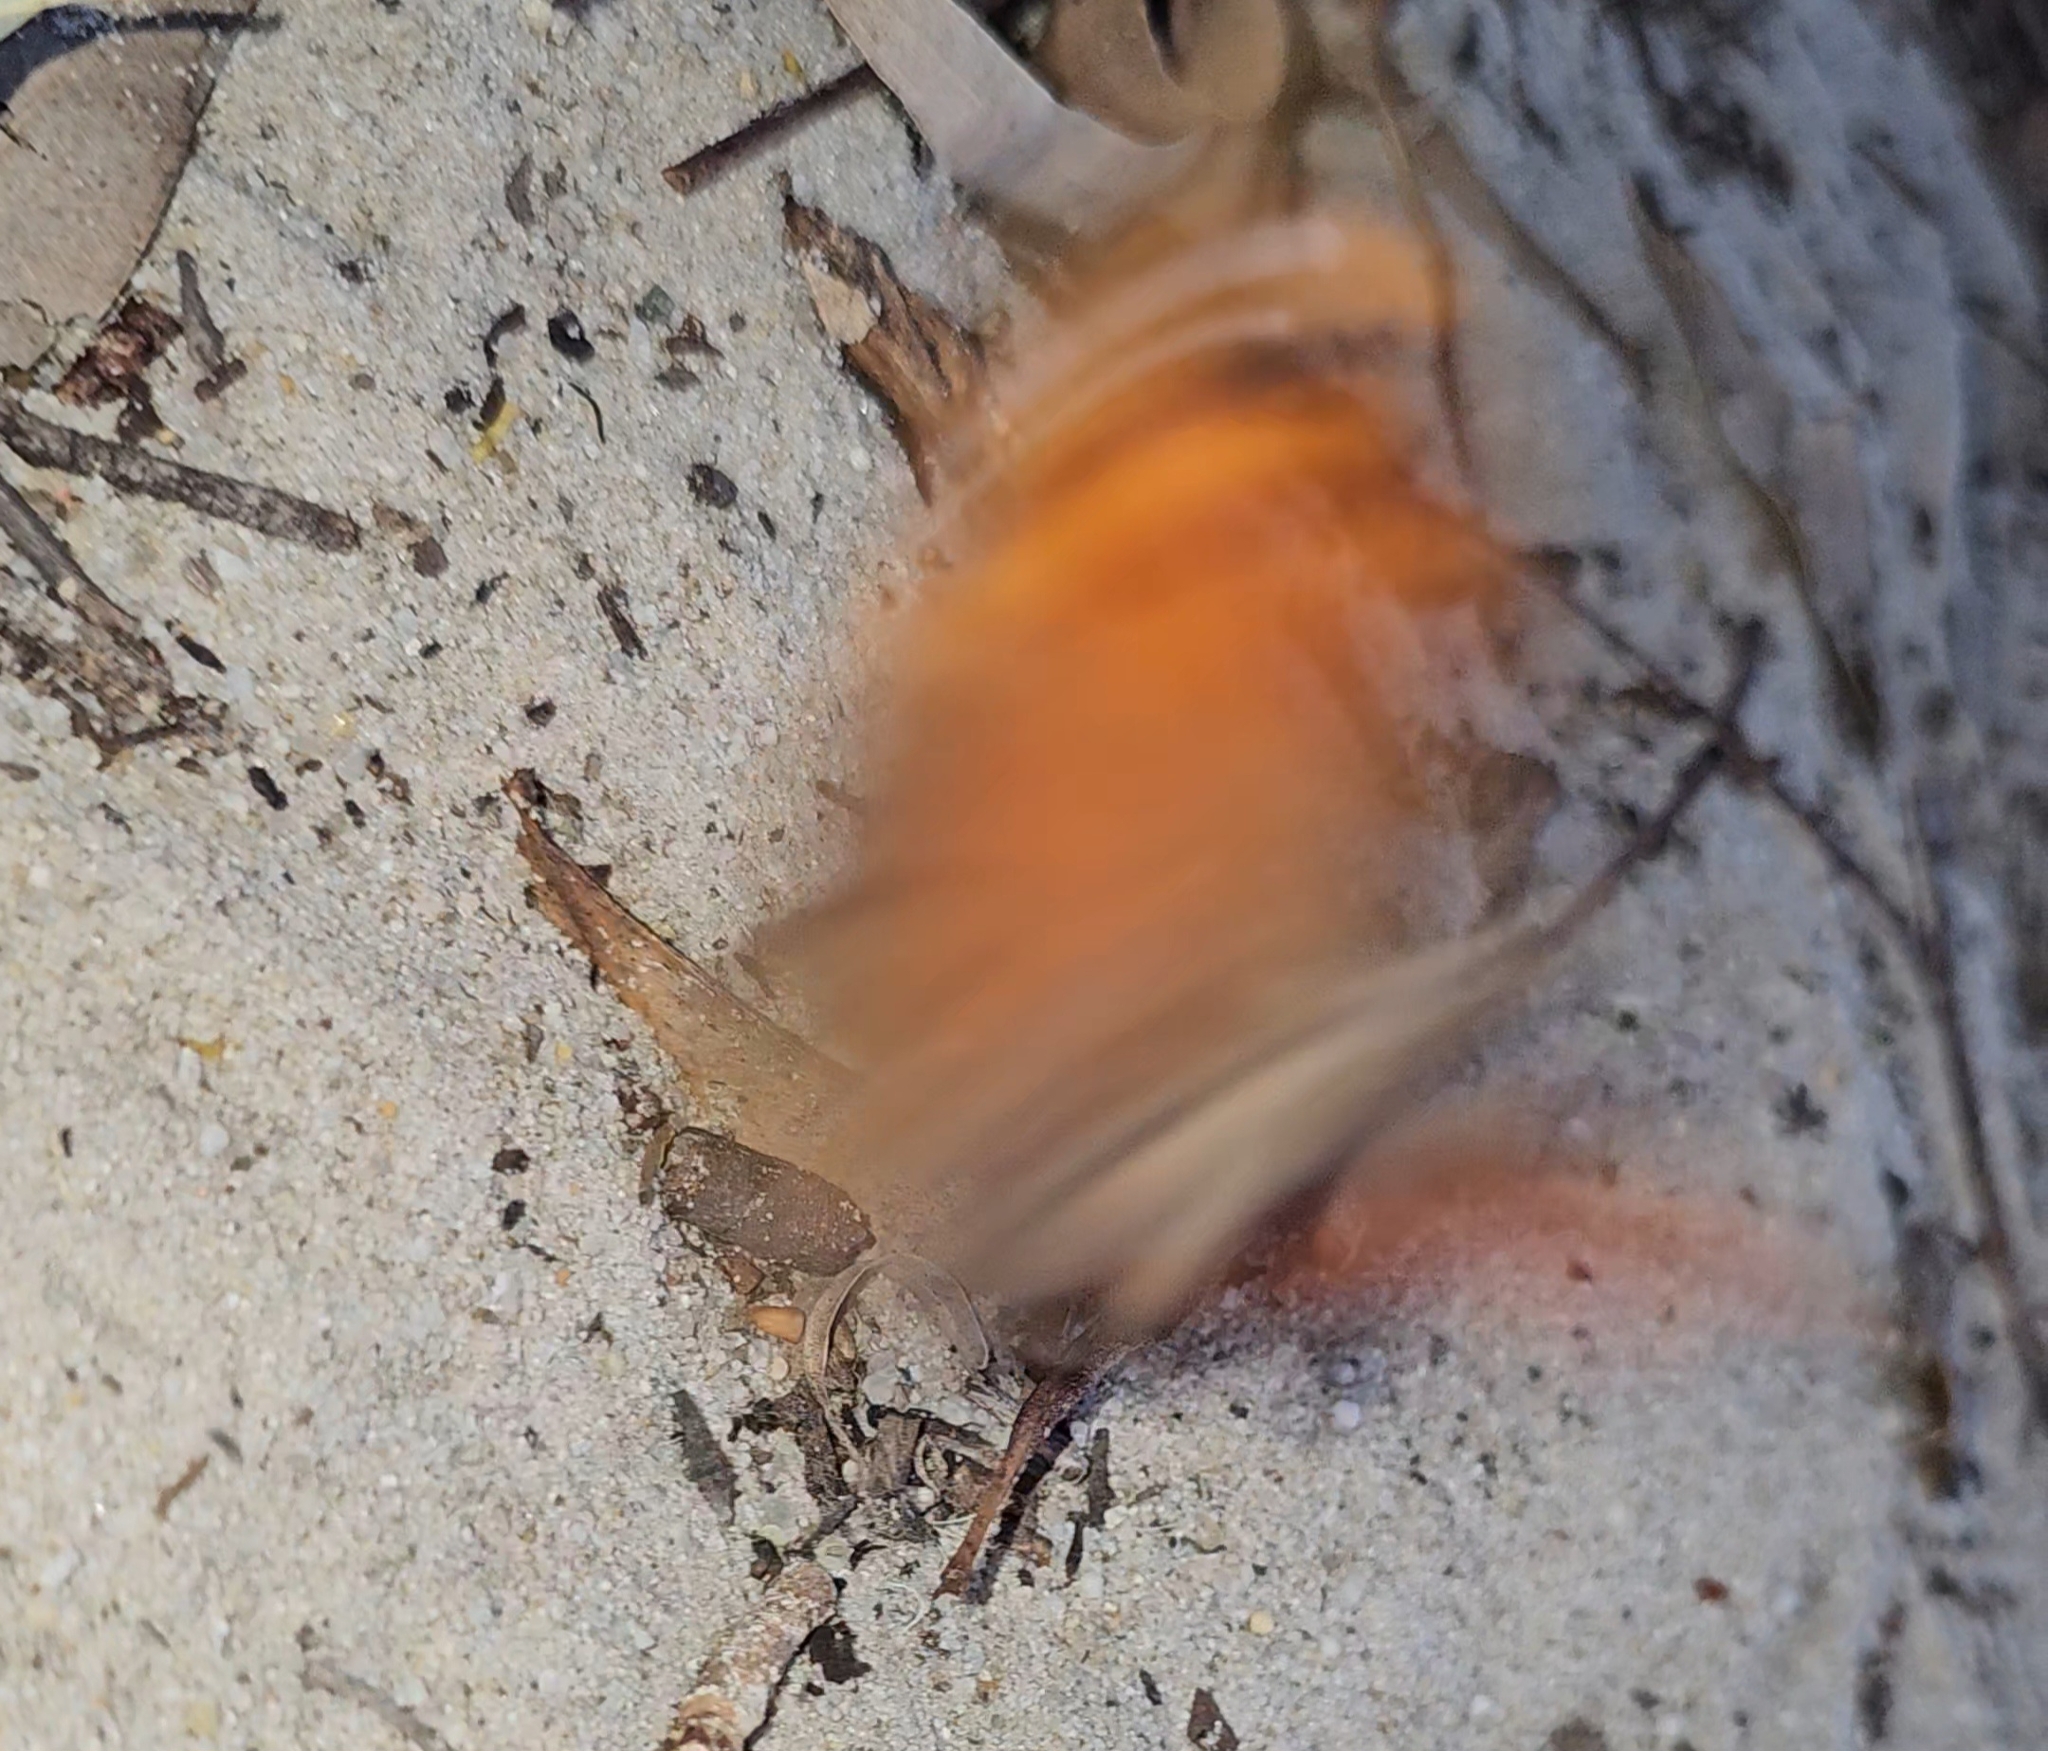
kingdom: Animalia
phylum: Arthropoda
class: Insecta
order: Lepidoptera
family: Nymphalidae
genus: Melanitis
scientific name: Melanitis leda
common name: Twilight brown
